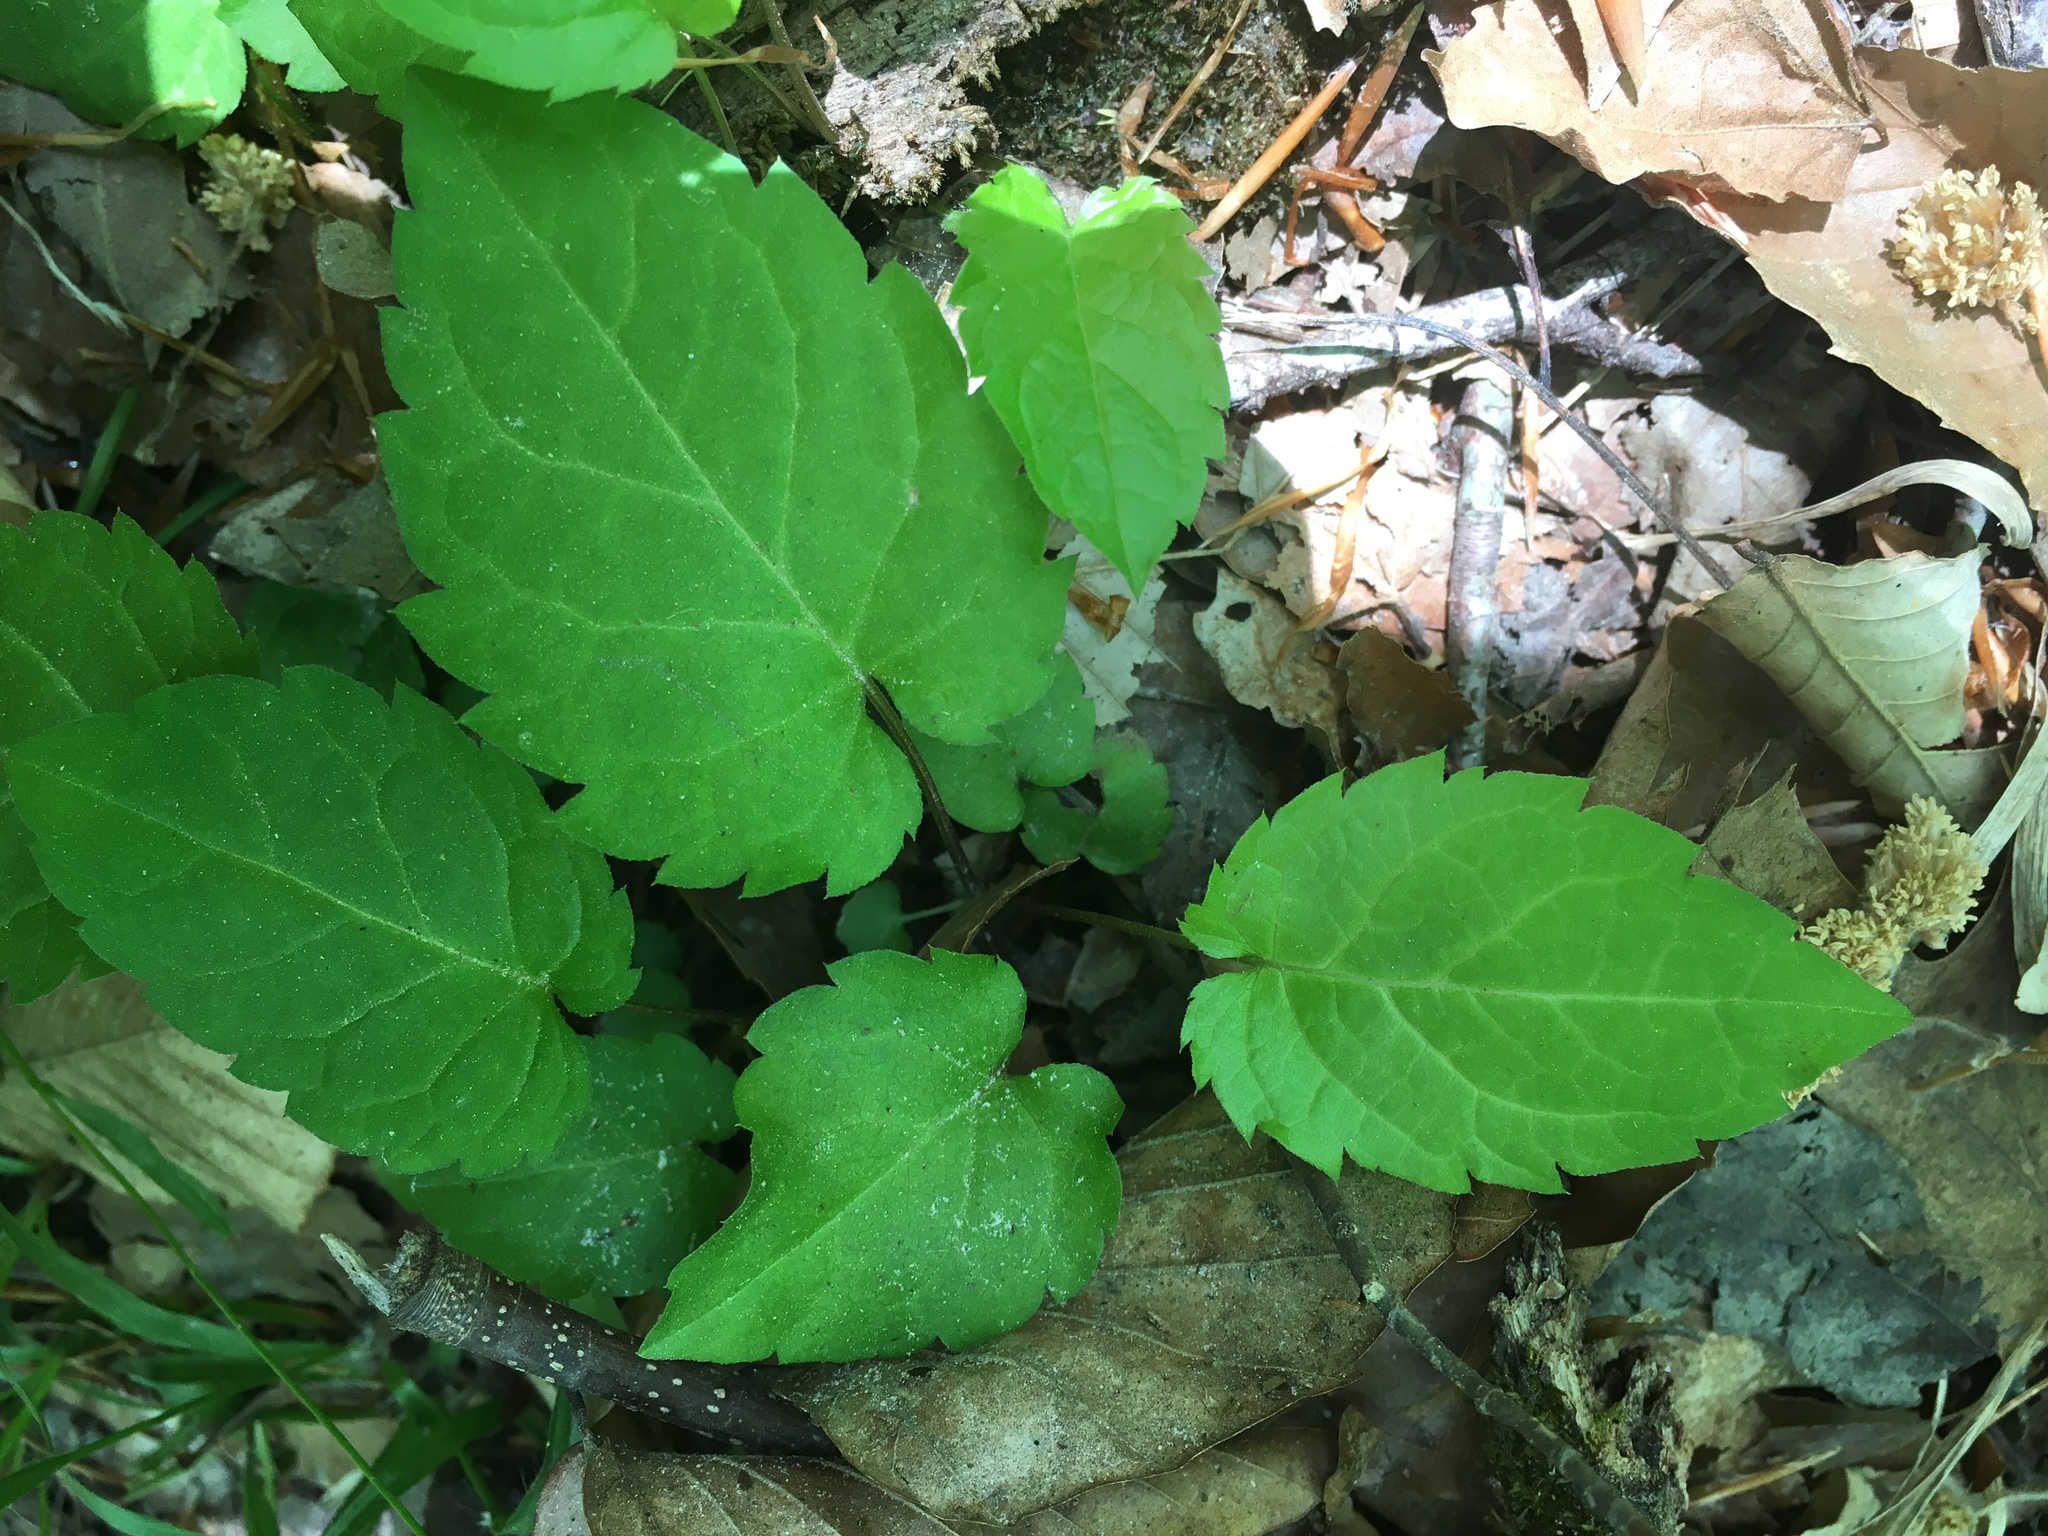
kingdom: Plantae
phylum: Tracheophyta
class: Magnoliopsida
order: Asterales
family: Asteraceae
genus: Eurybia
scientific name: Eurybia divaricata
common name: White wood aster
